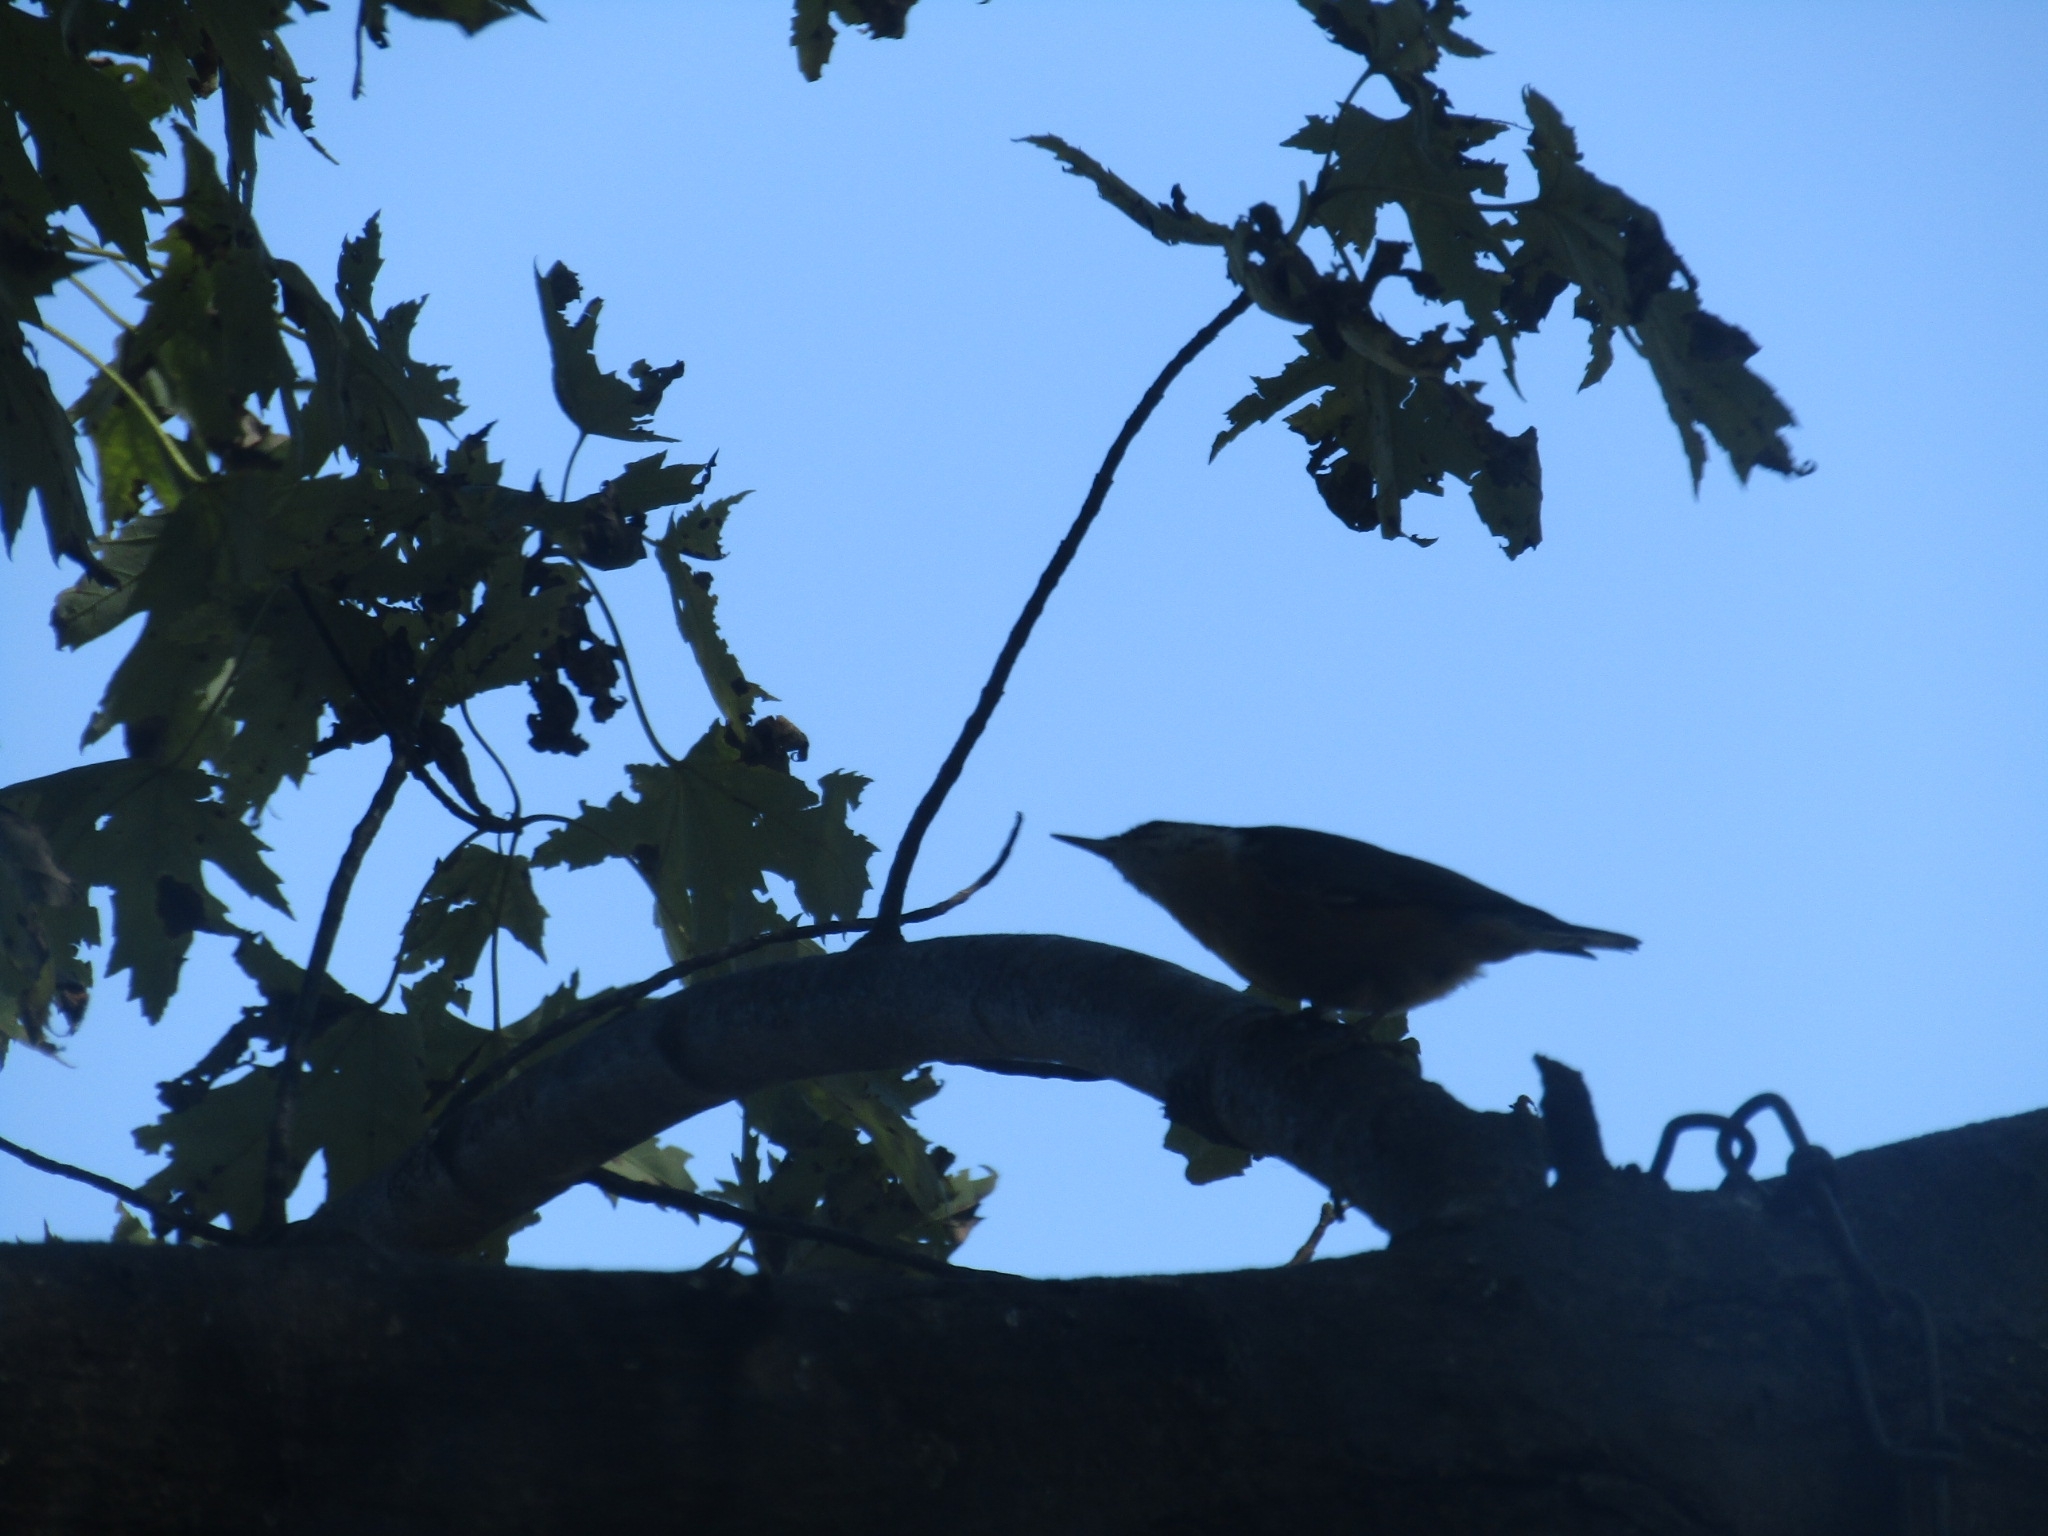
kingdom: Animalia
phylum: Chordata
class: Aves
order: Passeriformes
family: Sittidae
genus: Sitta
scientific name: Sitta canadensis
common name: Red-breasted nuthatch
